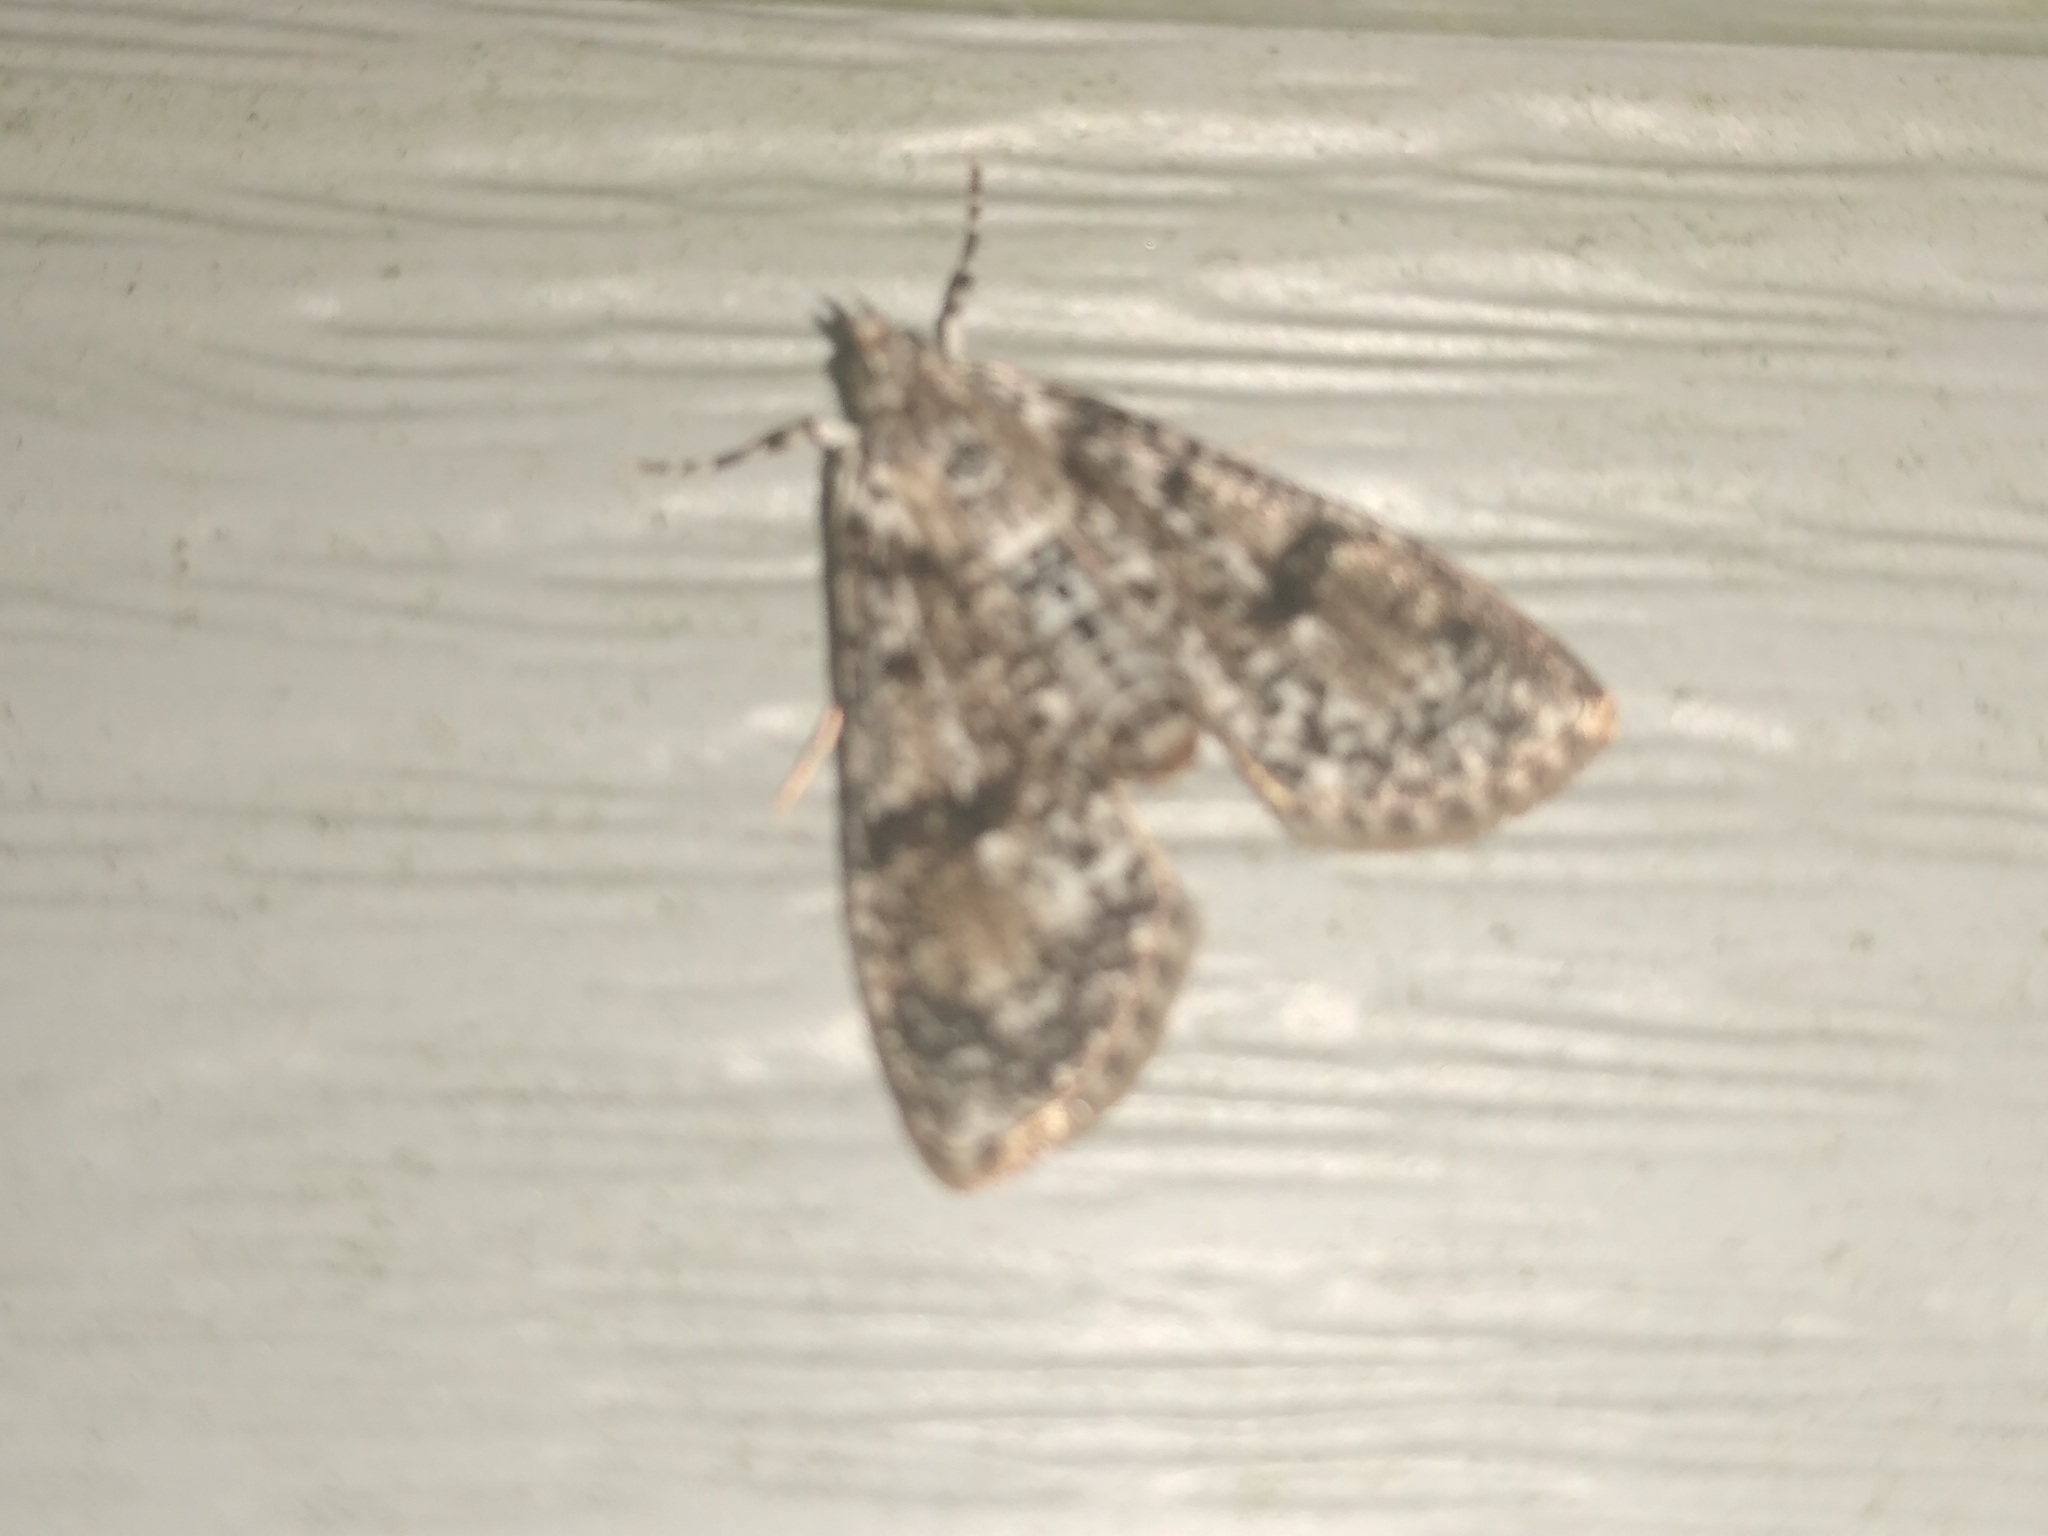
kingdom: Animalia
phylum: Arthropoda
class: Insecta
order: Lepidoptera
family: Crambidae
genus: Palpita
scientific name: Palpita magniferalis
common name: Splendid palpita moth
